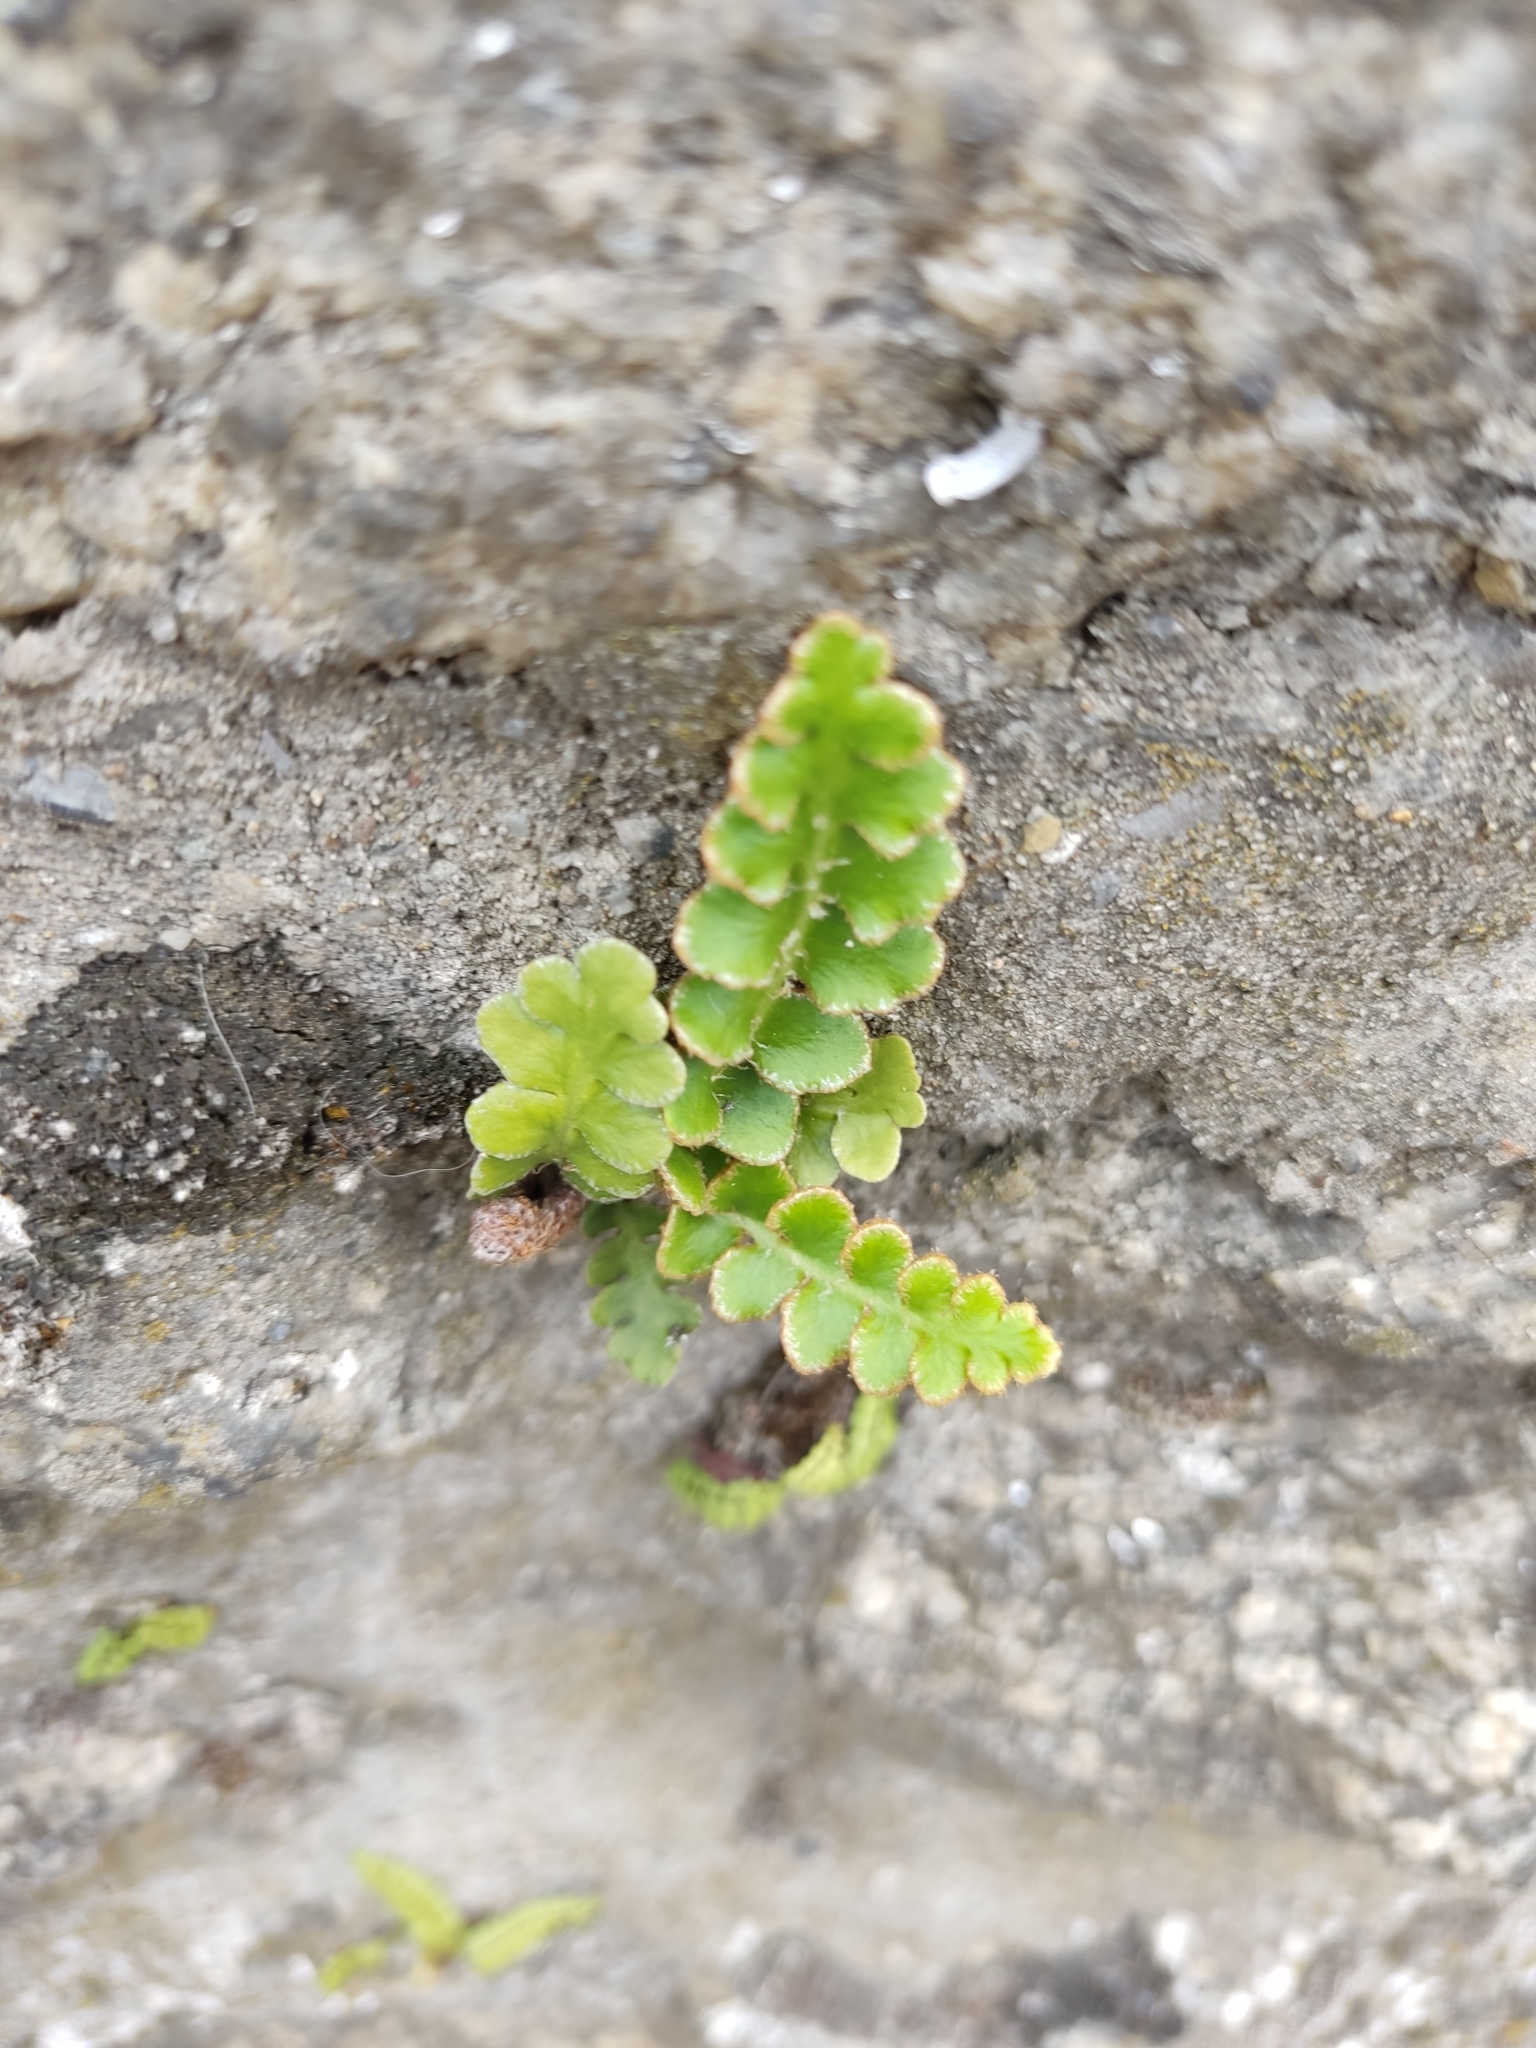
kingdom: Plantae
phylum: Tracheophyta
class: Polypodiopsida
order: Polypodiales
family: Aspleniaceae
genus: Asplenium
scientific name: Asplenium ceterach
